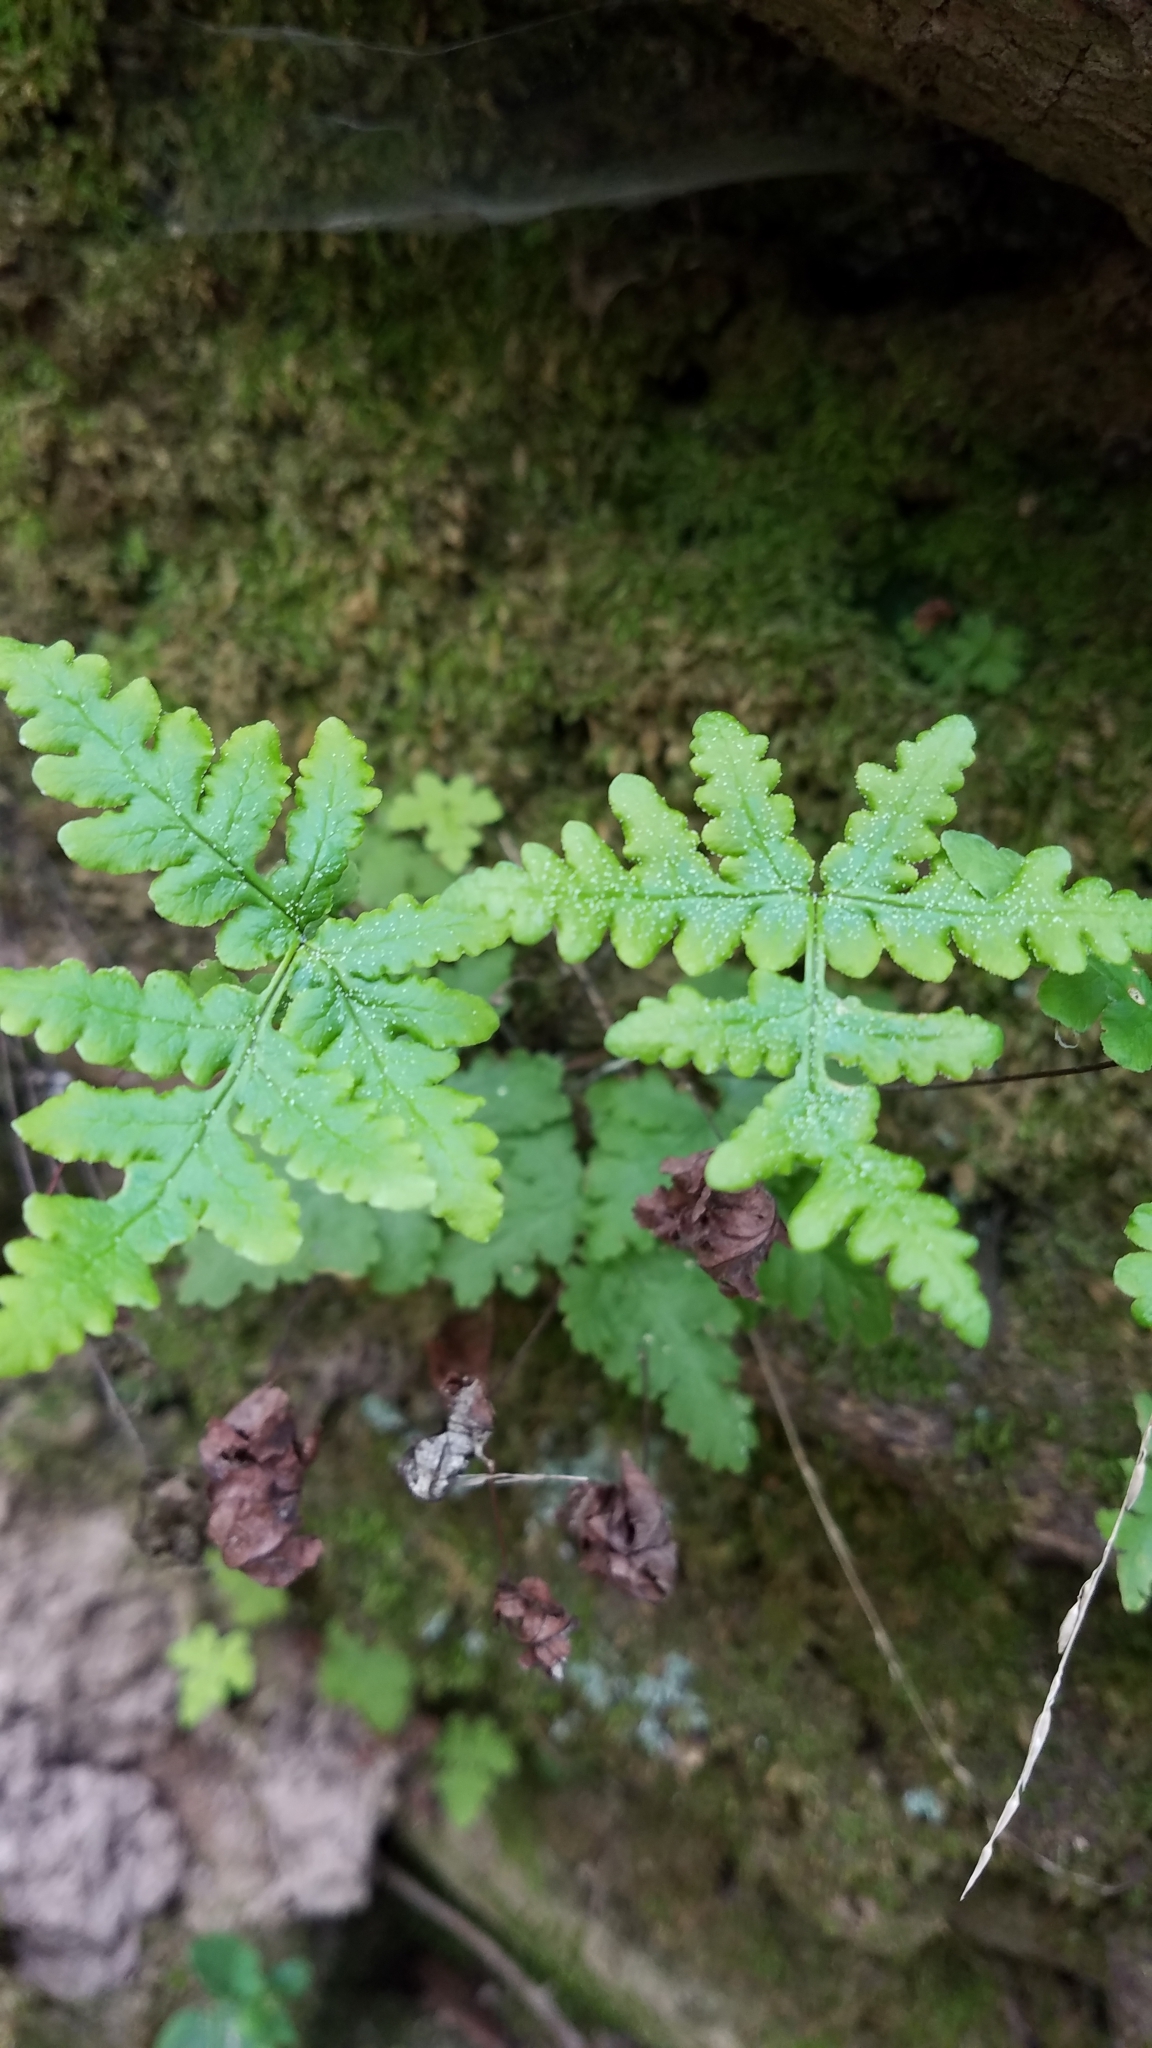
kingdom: Plantae
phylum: Tracheophyta
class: Polypodiopsida
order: Polypodiales
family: Pteridaceae
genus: Pentagramma
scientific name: Pentagramma triangularis
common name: Gold fern
